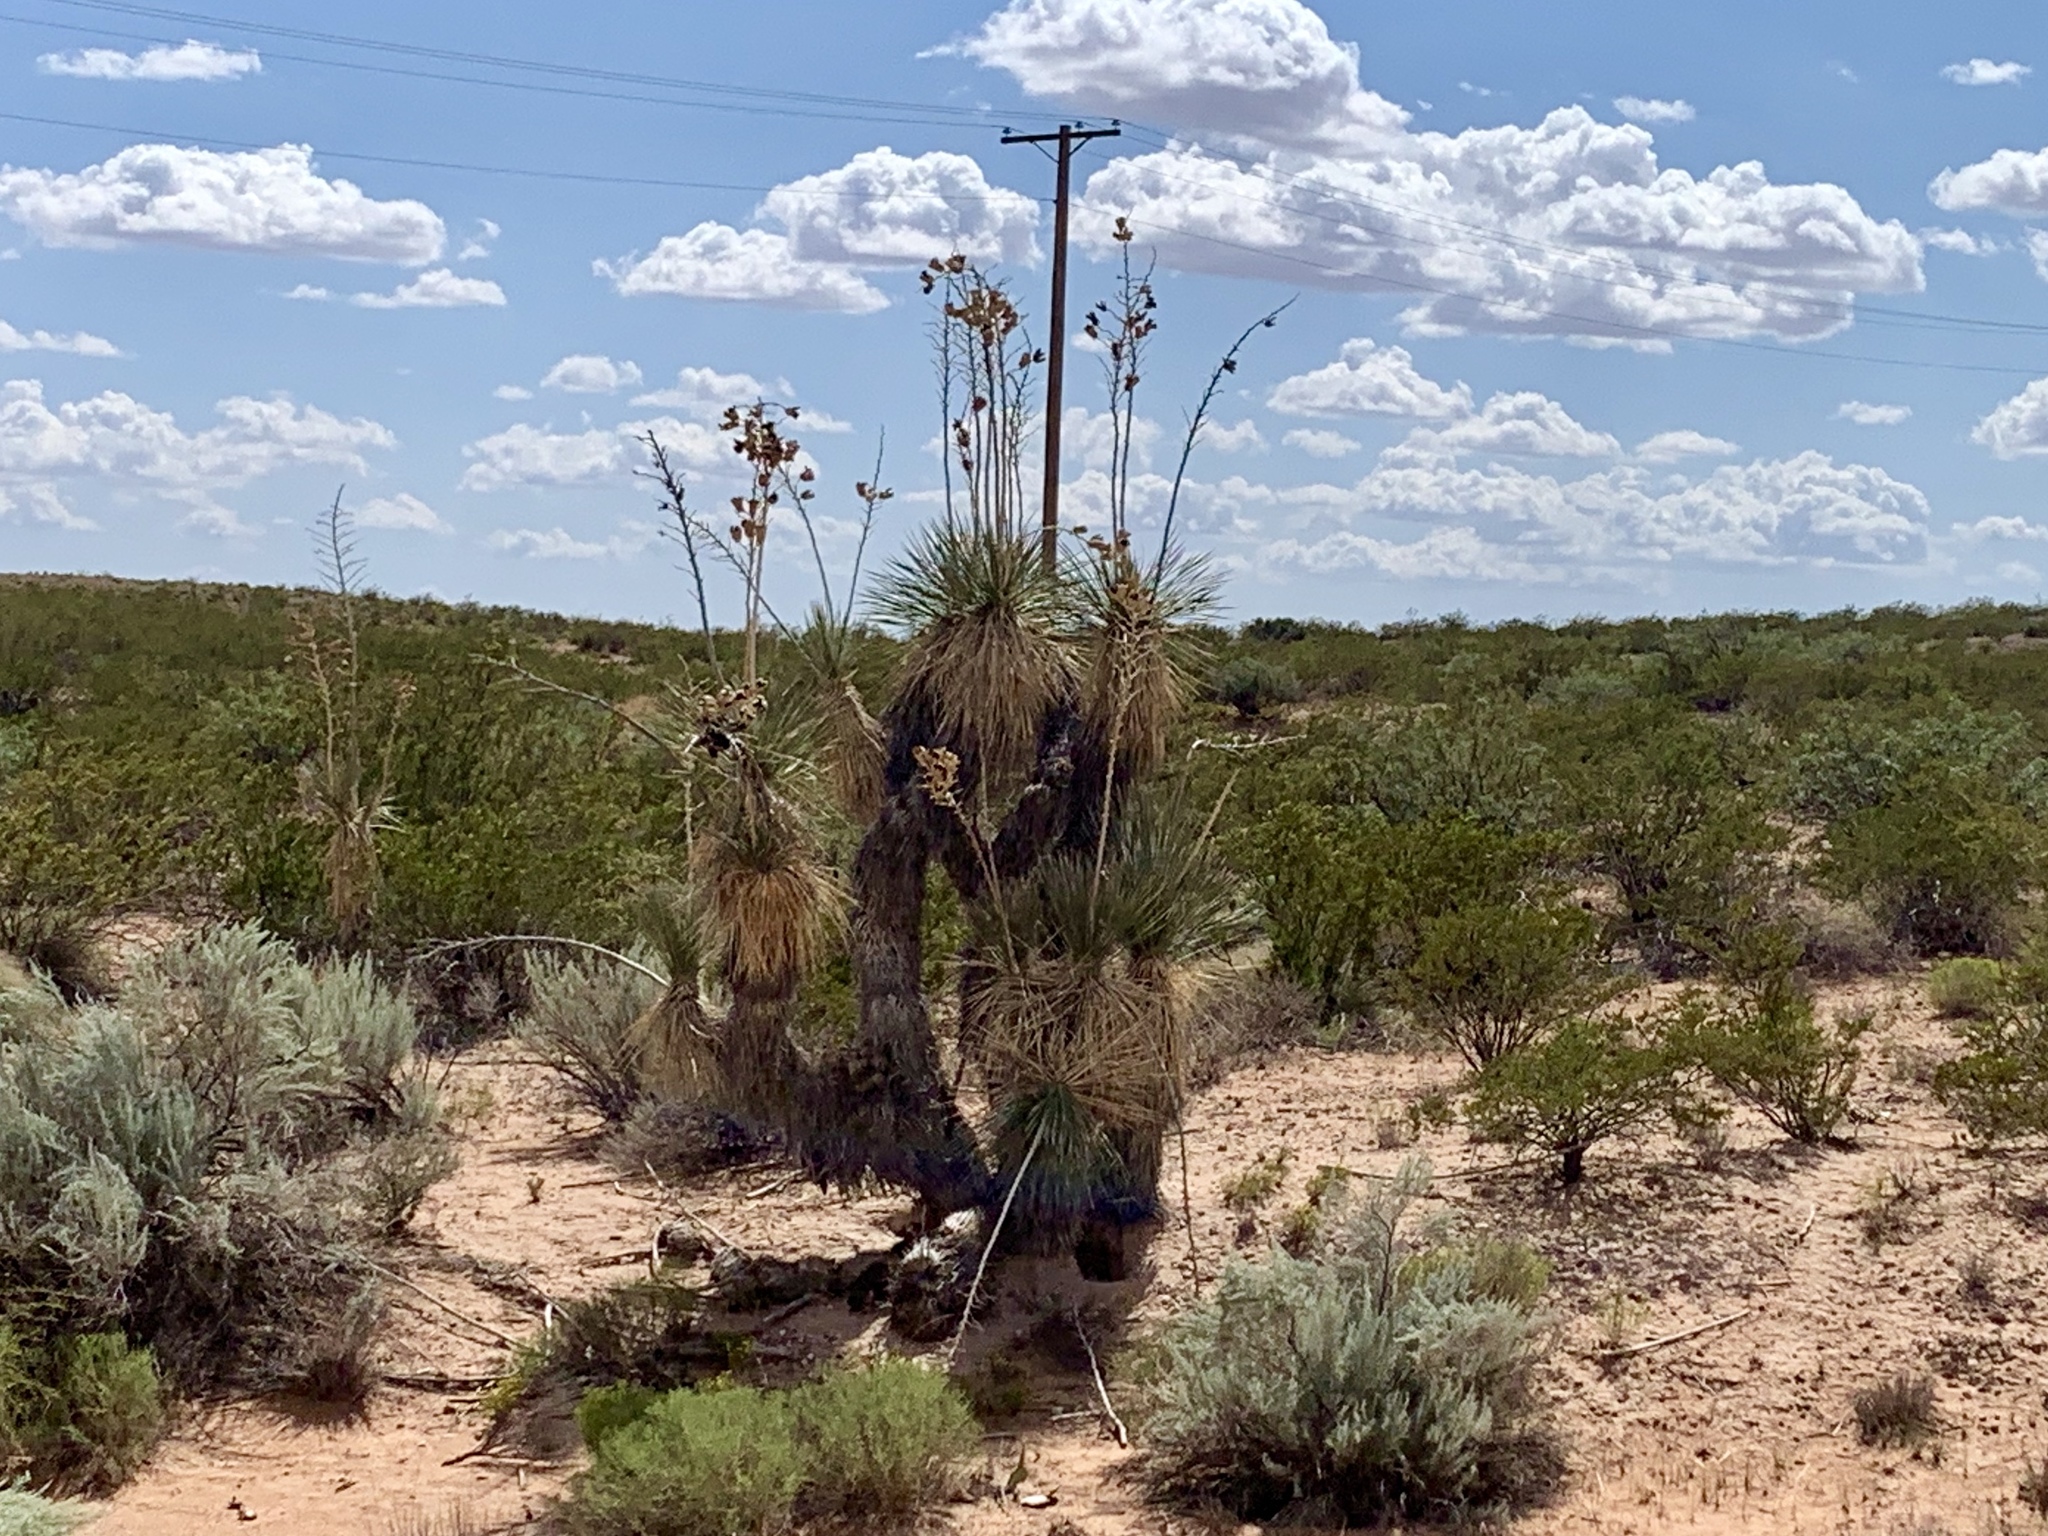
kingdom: Plantae
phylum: Tracheophyta
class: Liliopsida
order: Asparagales
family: Asparagaceae
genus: Yucca
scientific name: Yucca elata
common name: Palmella
